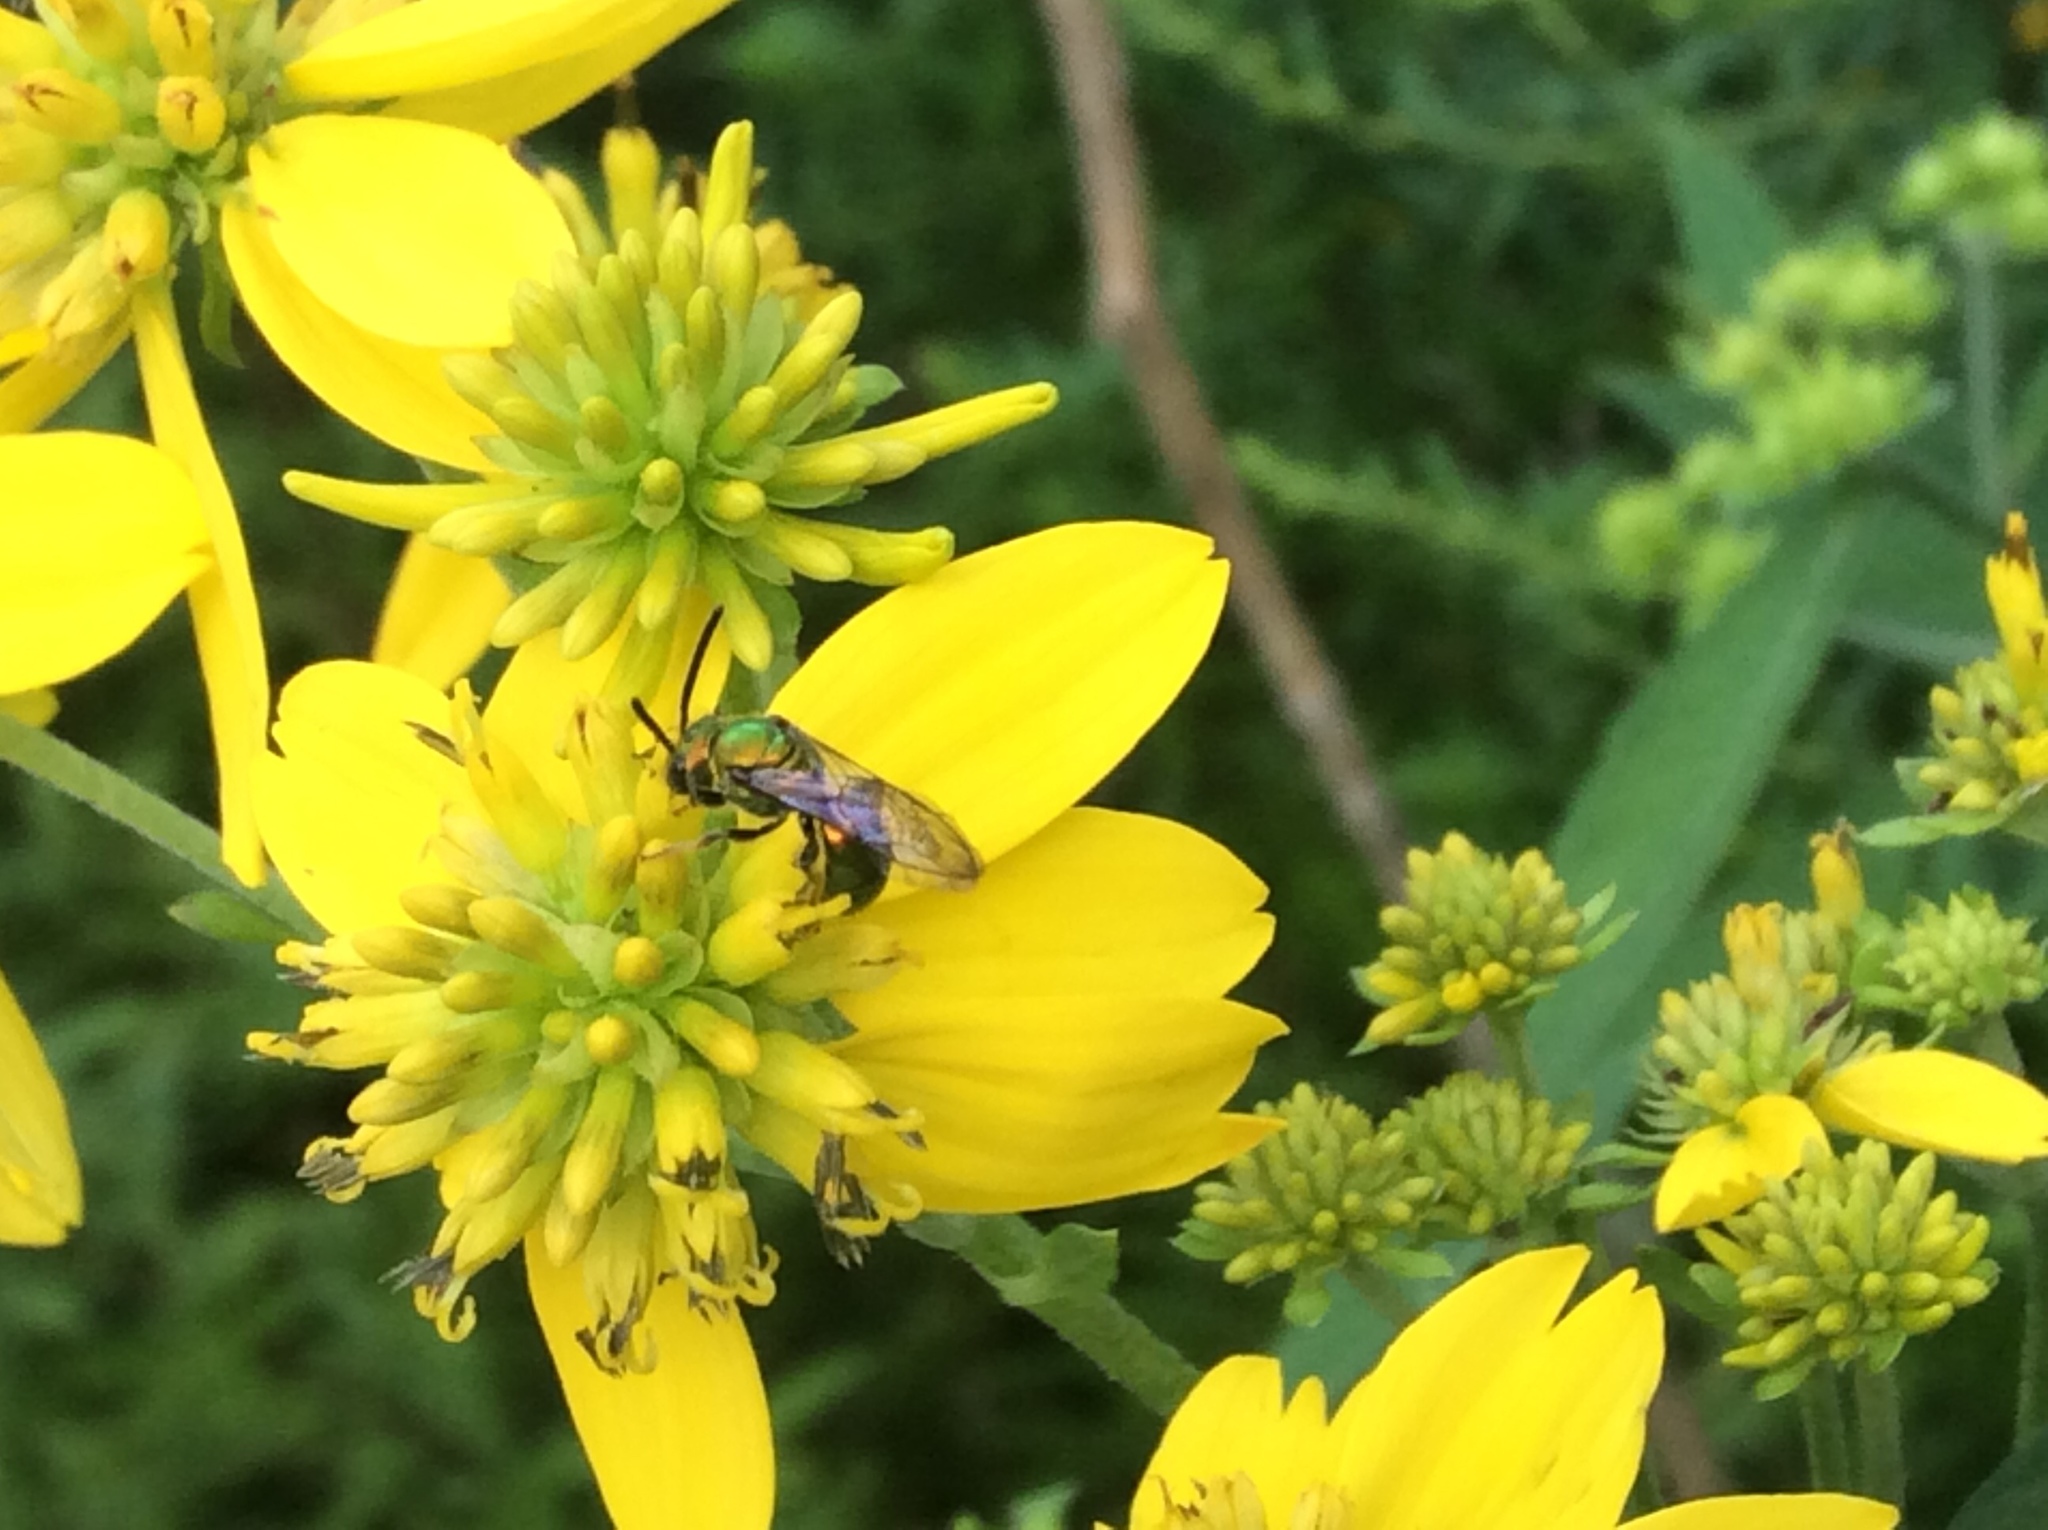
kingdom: Animalia
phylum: Arthropoda
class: Insecta
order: Hymenoptera
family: Halictidae
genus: Augochlora
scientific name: Augochlora pura
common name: Pure green sweat bee
